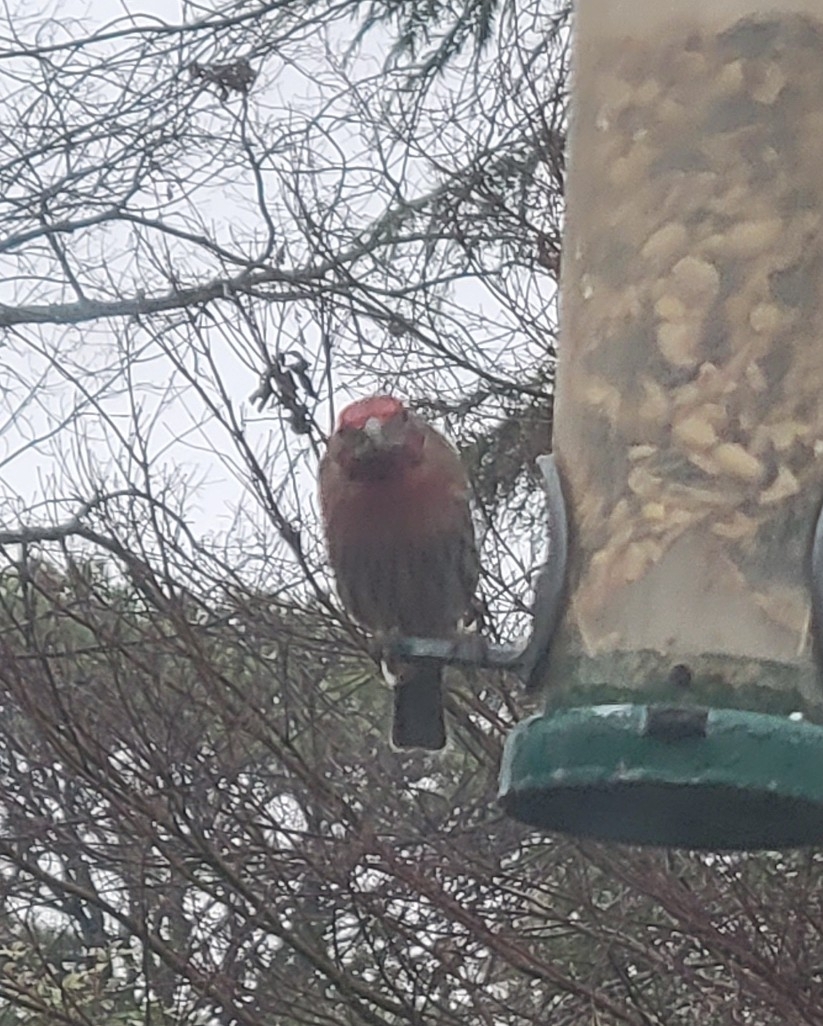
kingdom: Animalia
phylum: Chordata
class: Aves
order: Passeriformes
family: Fringillidae
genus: Haemorhous
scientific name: Haemorhous mexicanus
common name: House finch
